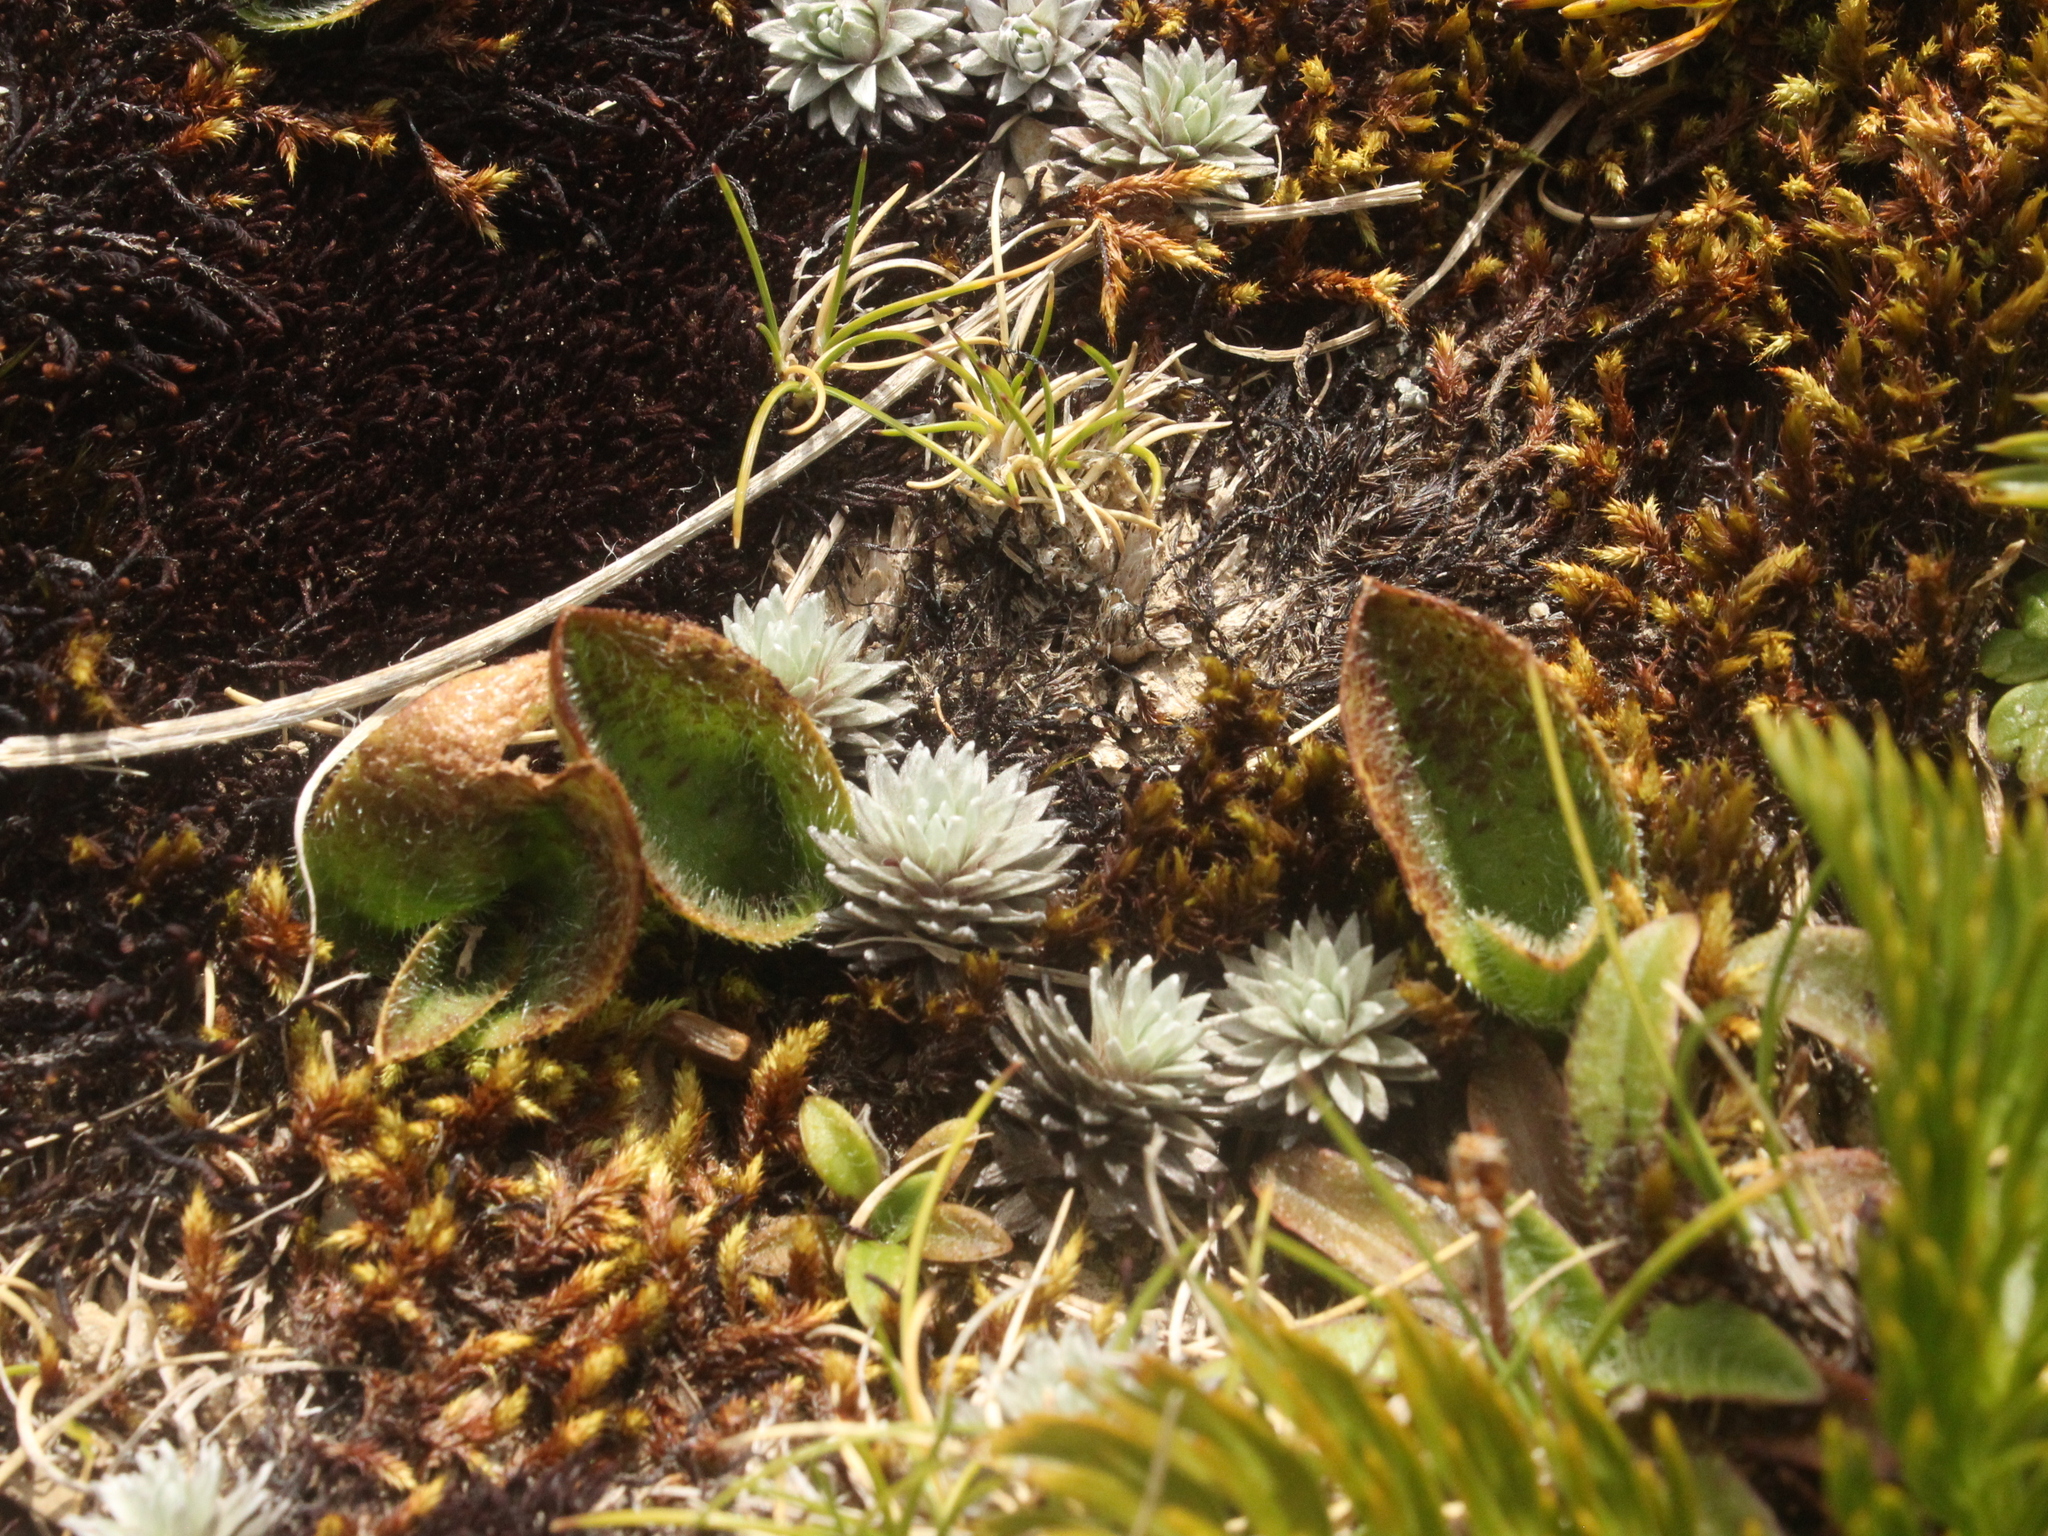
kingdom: Plantae
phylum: Tracheophyta
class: Liliopsida
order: Asparagales
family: Orchidaceae
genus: Aporostylis
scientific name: Aporostylis bifolia
